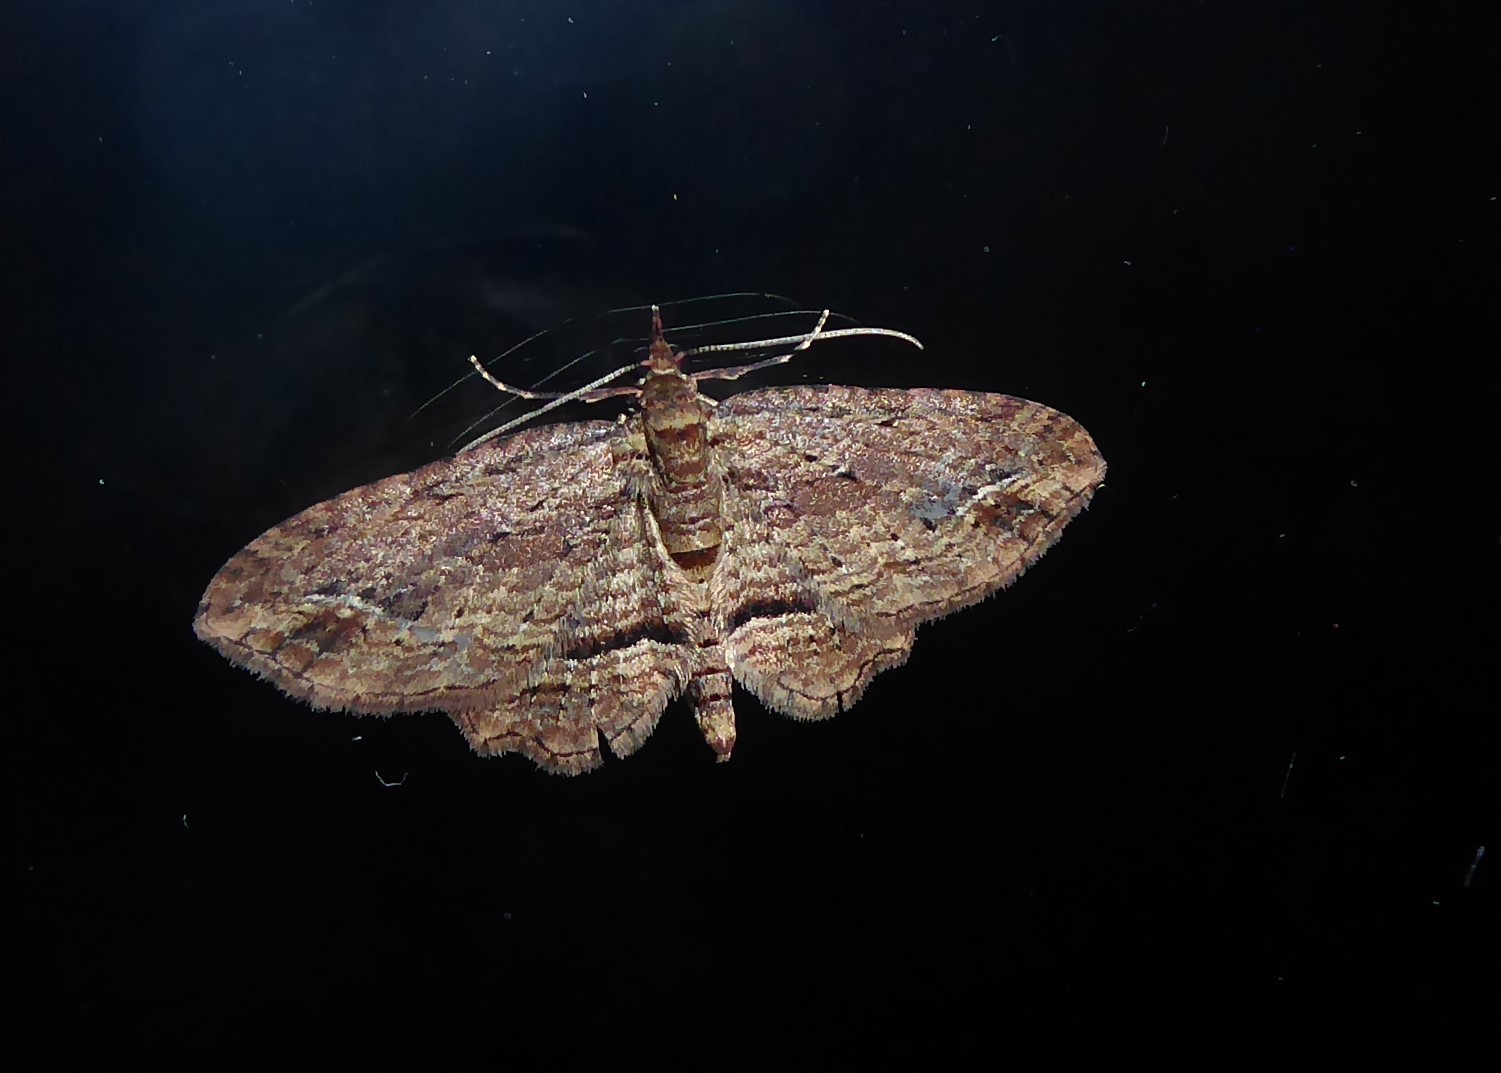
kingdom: Animalia
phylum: Arthropoda
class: Insecta
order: Lepidoptera
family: Geometridae
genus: Chloroclystis
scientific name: Chloroclystis filata
